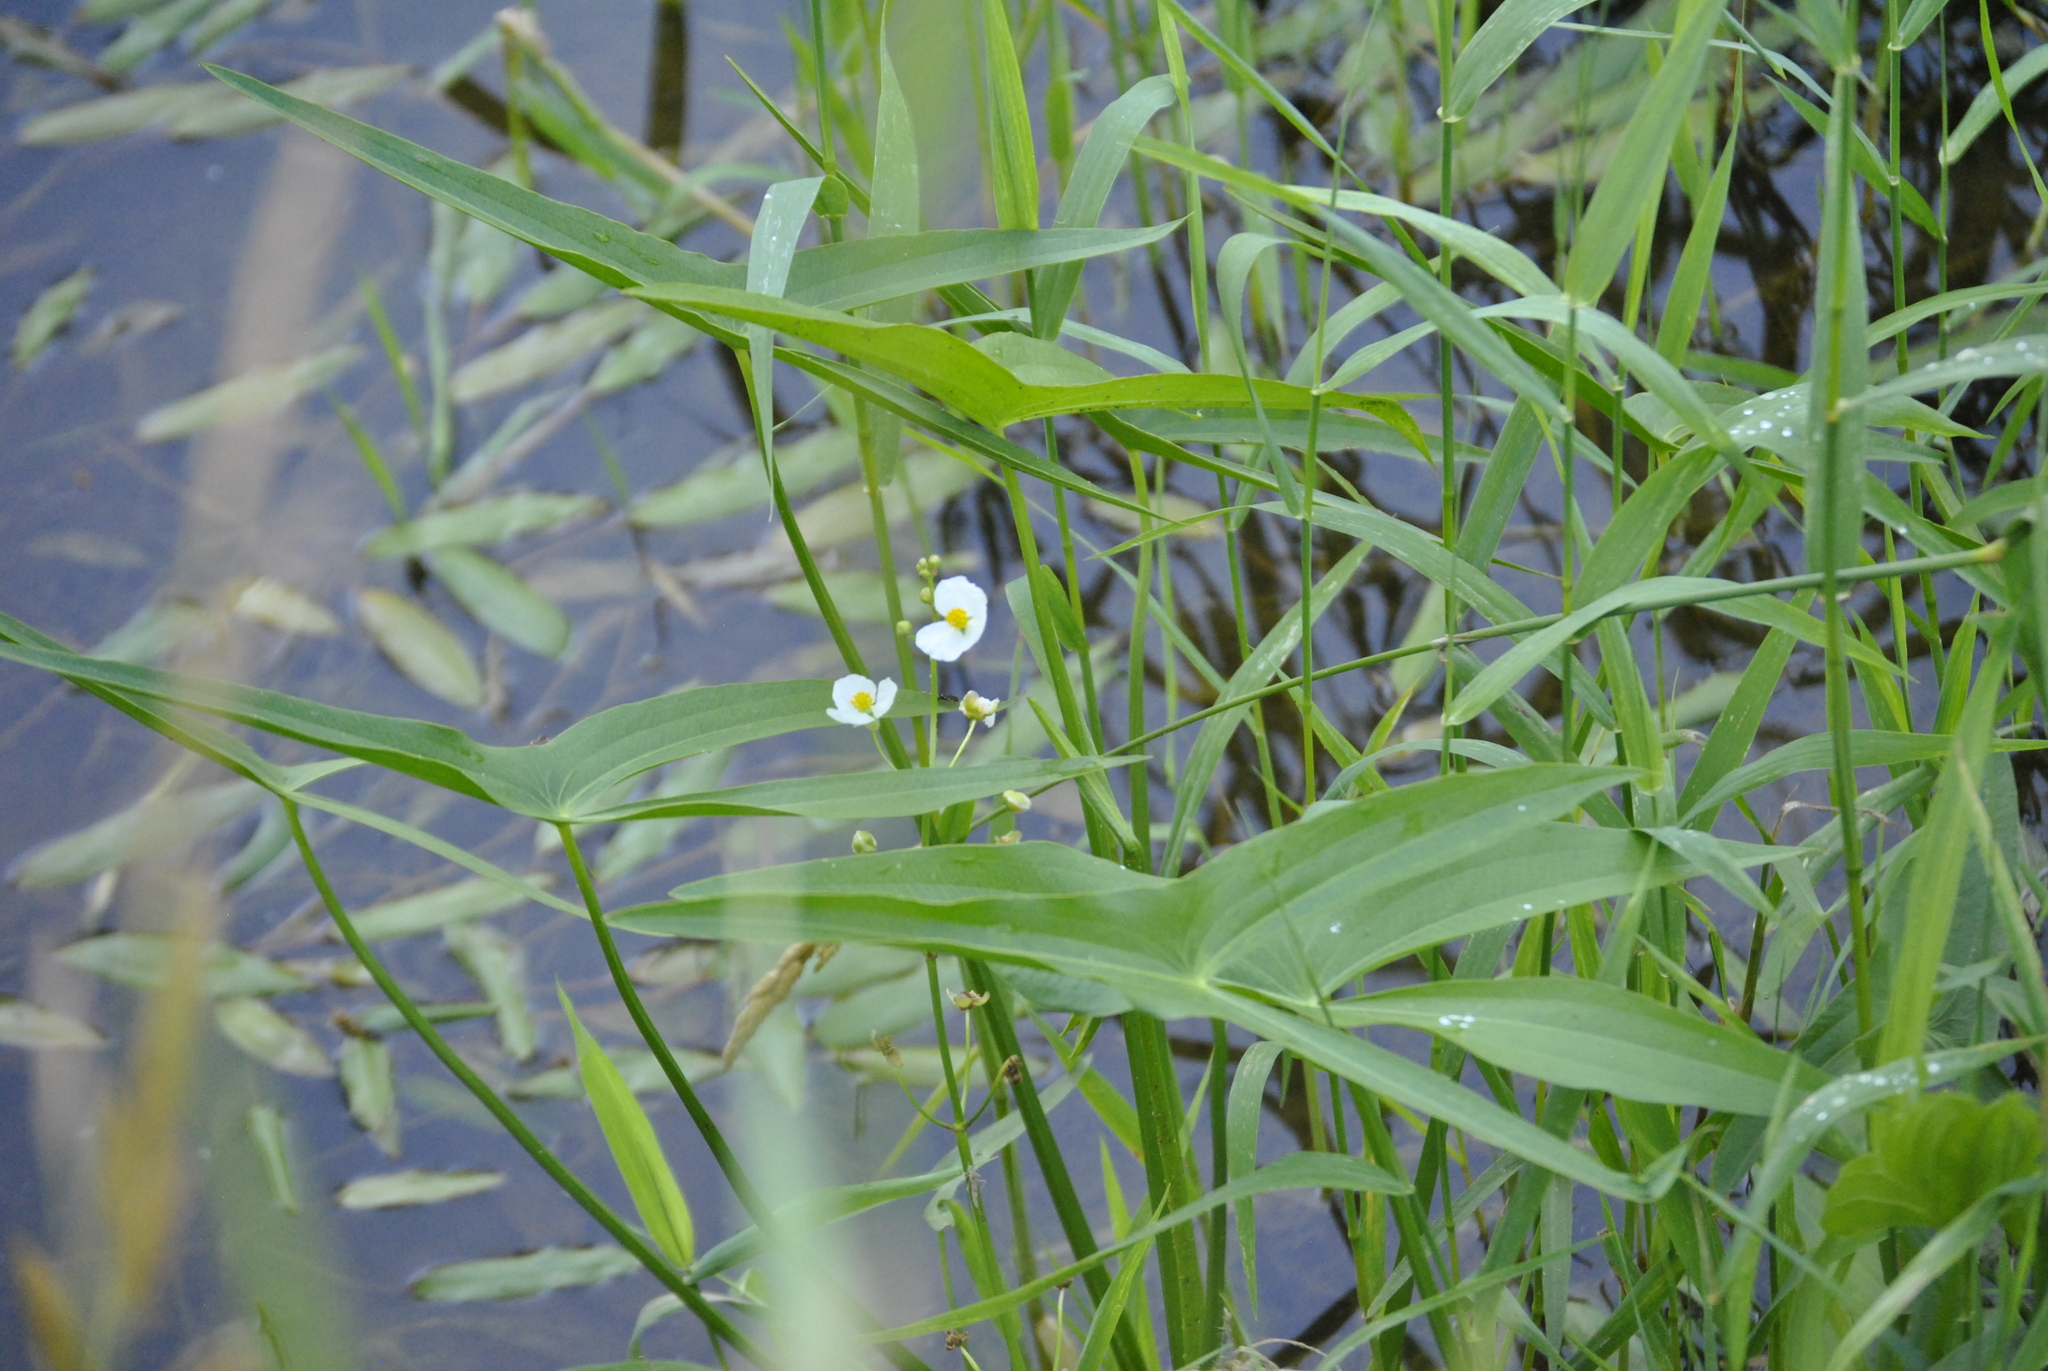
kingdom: Plantae
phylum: Tracheophyta
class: Liliopsida
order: Alismatales
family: Alismataceae
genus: Sagittaria
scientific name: Sagittaria latifolia
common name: Duck-potato
